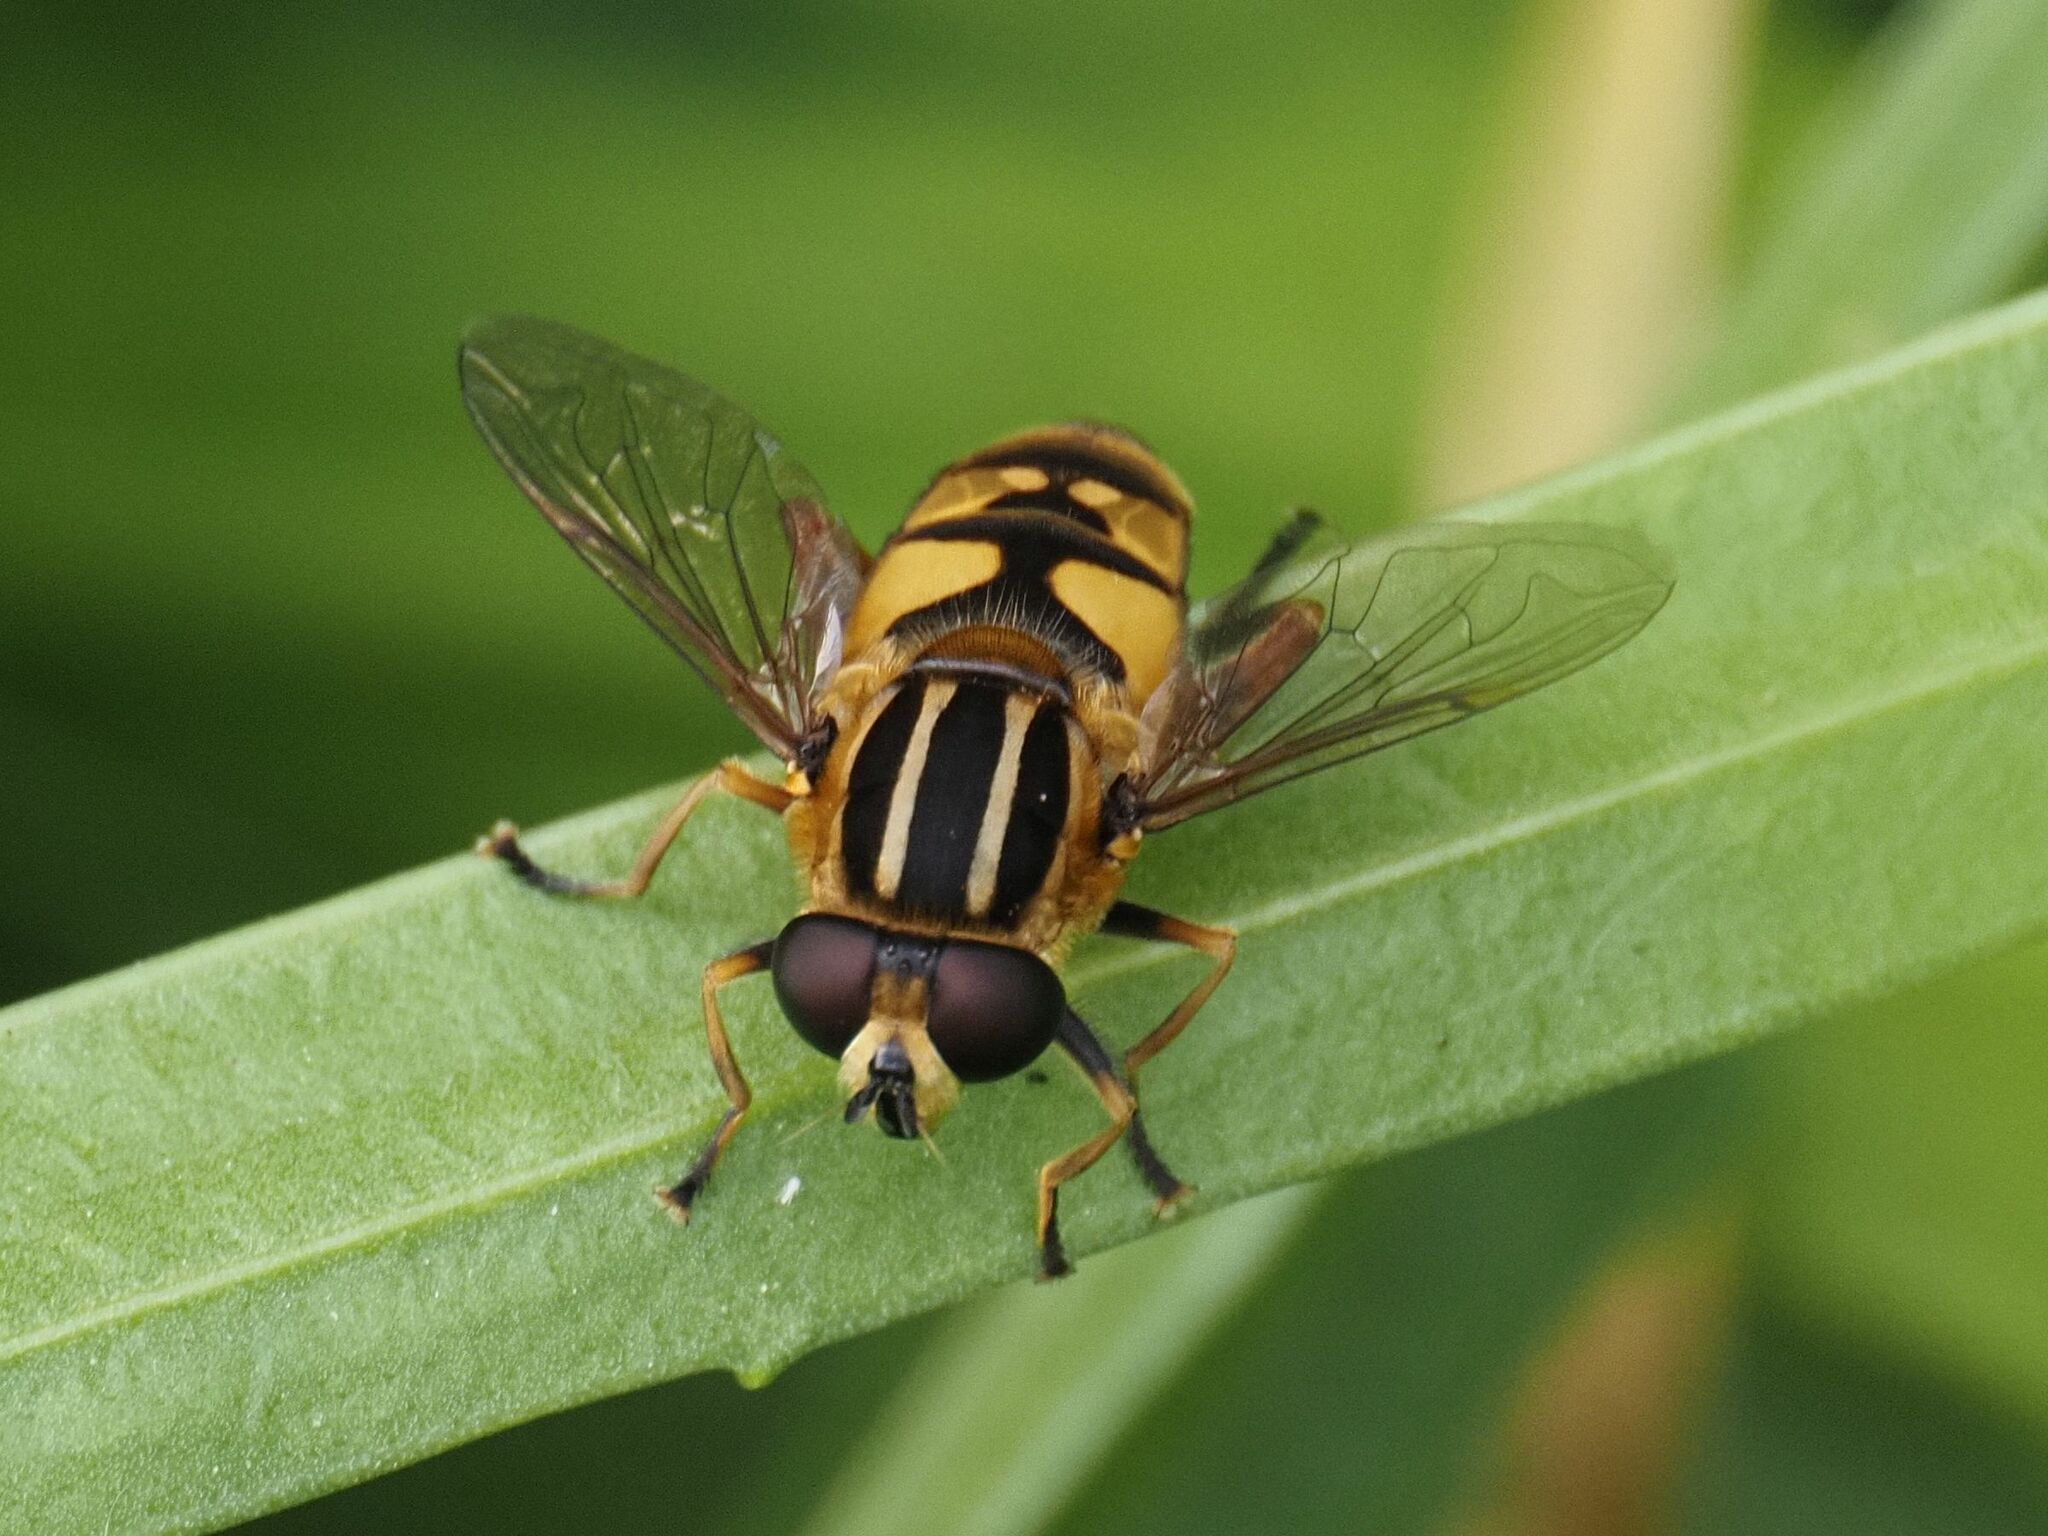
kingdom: Animalia
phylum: Arthropoda
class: Insecta
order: Diptera
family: Syrphidae
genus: Helophilus
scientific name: Helophilus pendulus
